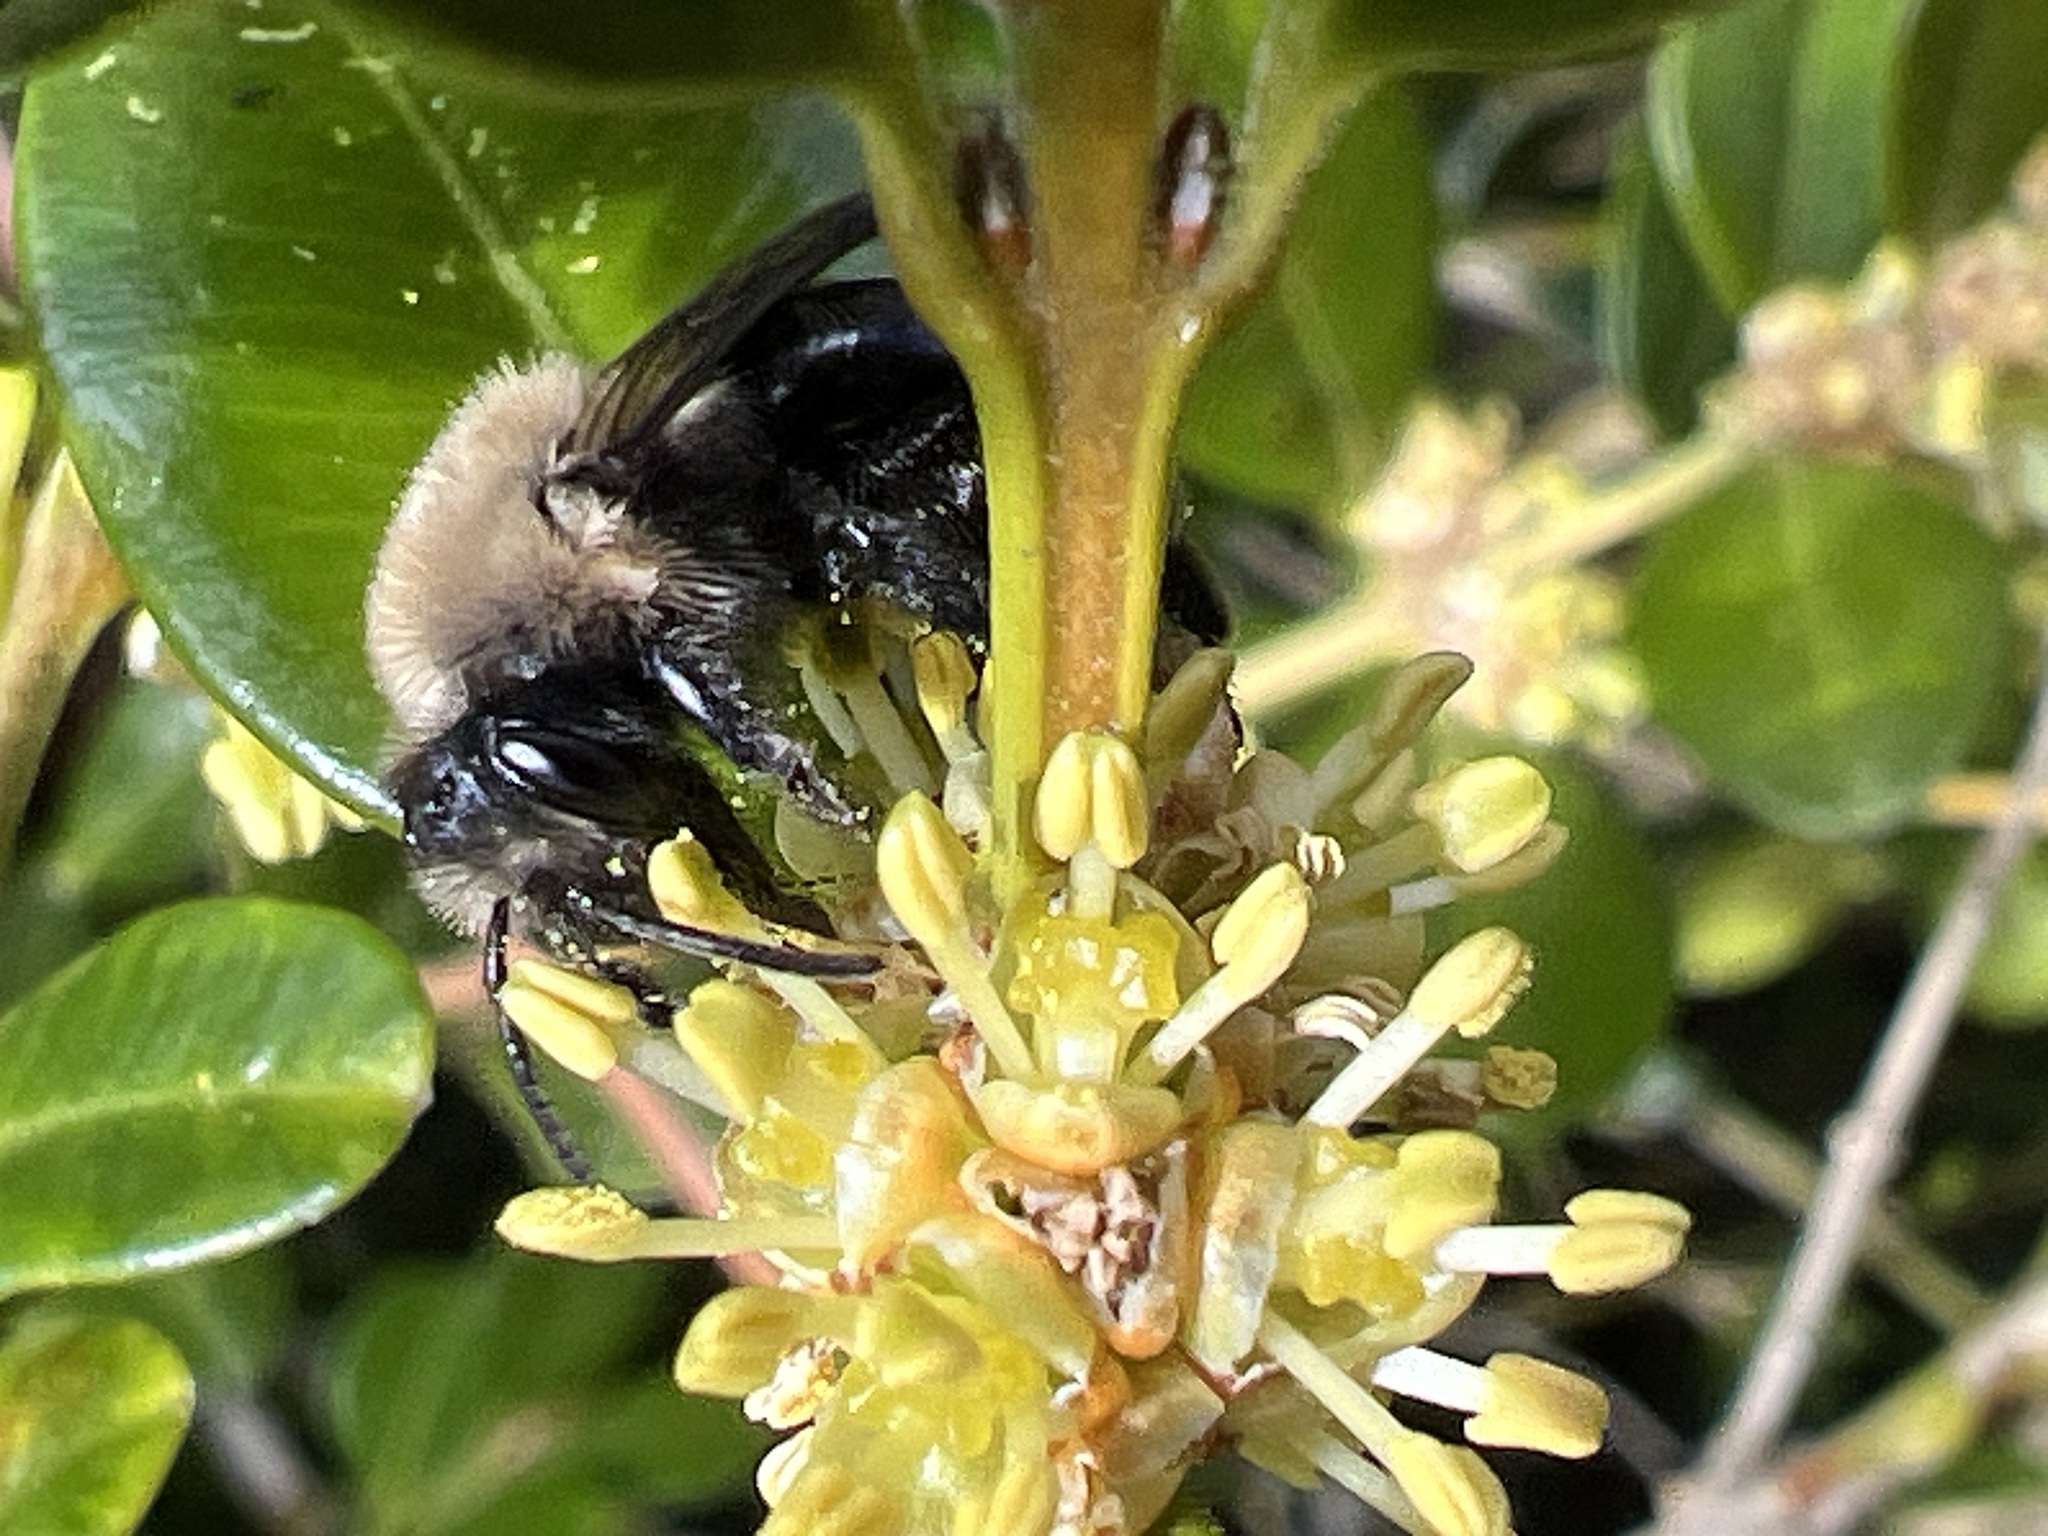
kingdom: Animalia
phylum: Arthropoda
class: Insecta
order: Hymenoptera
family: Apidae
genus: Xylocopa
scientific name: Xylocopa virginica
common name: Carpenter bee
